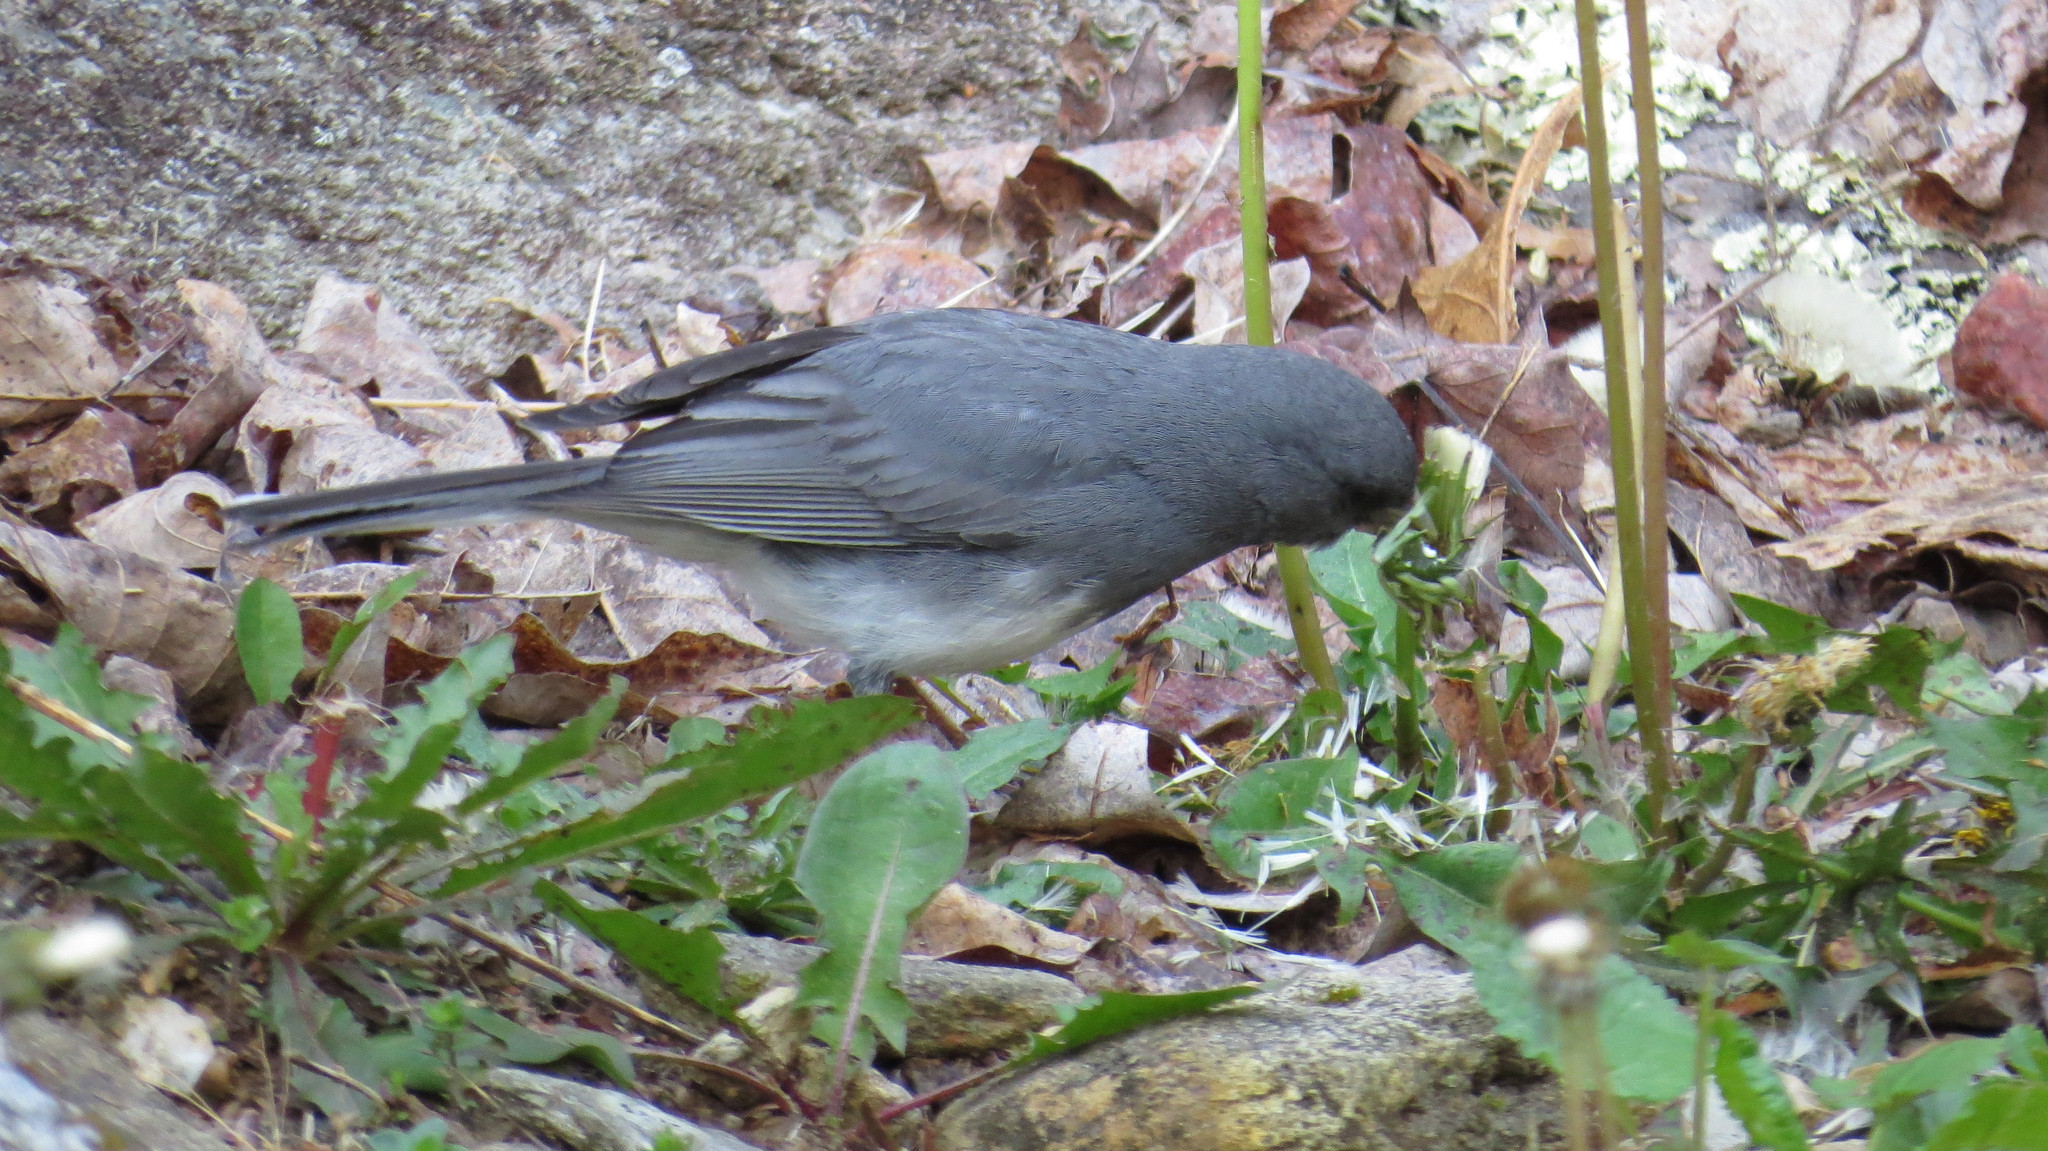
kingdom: Animalia
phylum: Chordata
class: Aves
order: Passeriformes
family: Passerellidae
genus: Junco
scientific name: Junco hyemalis
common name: Dark-eyed junco
